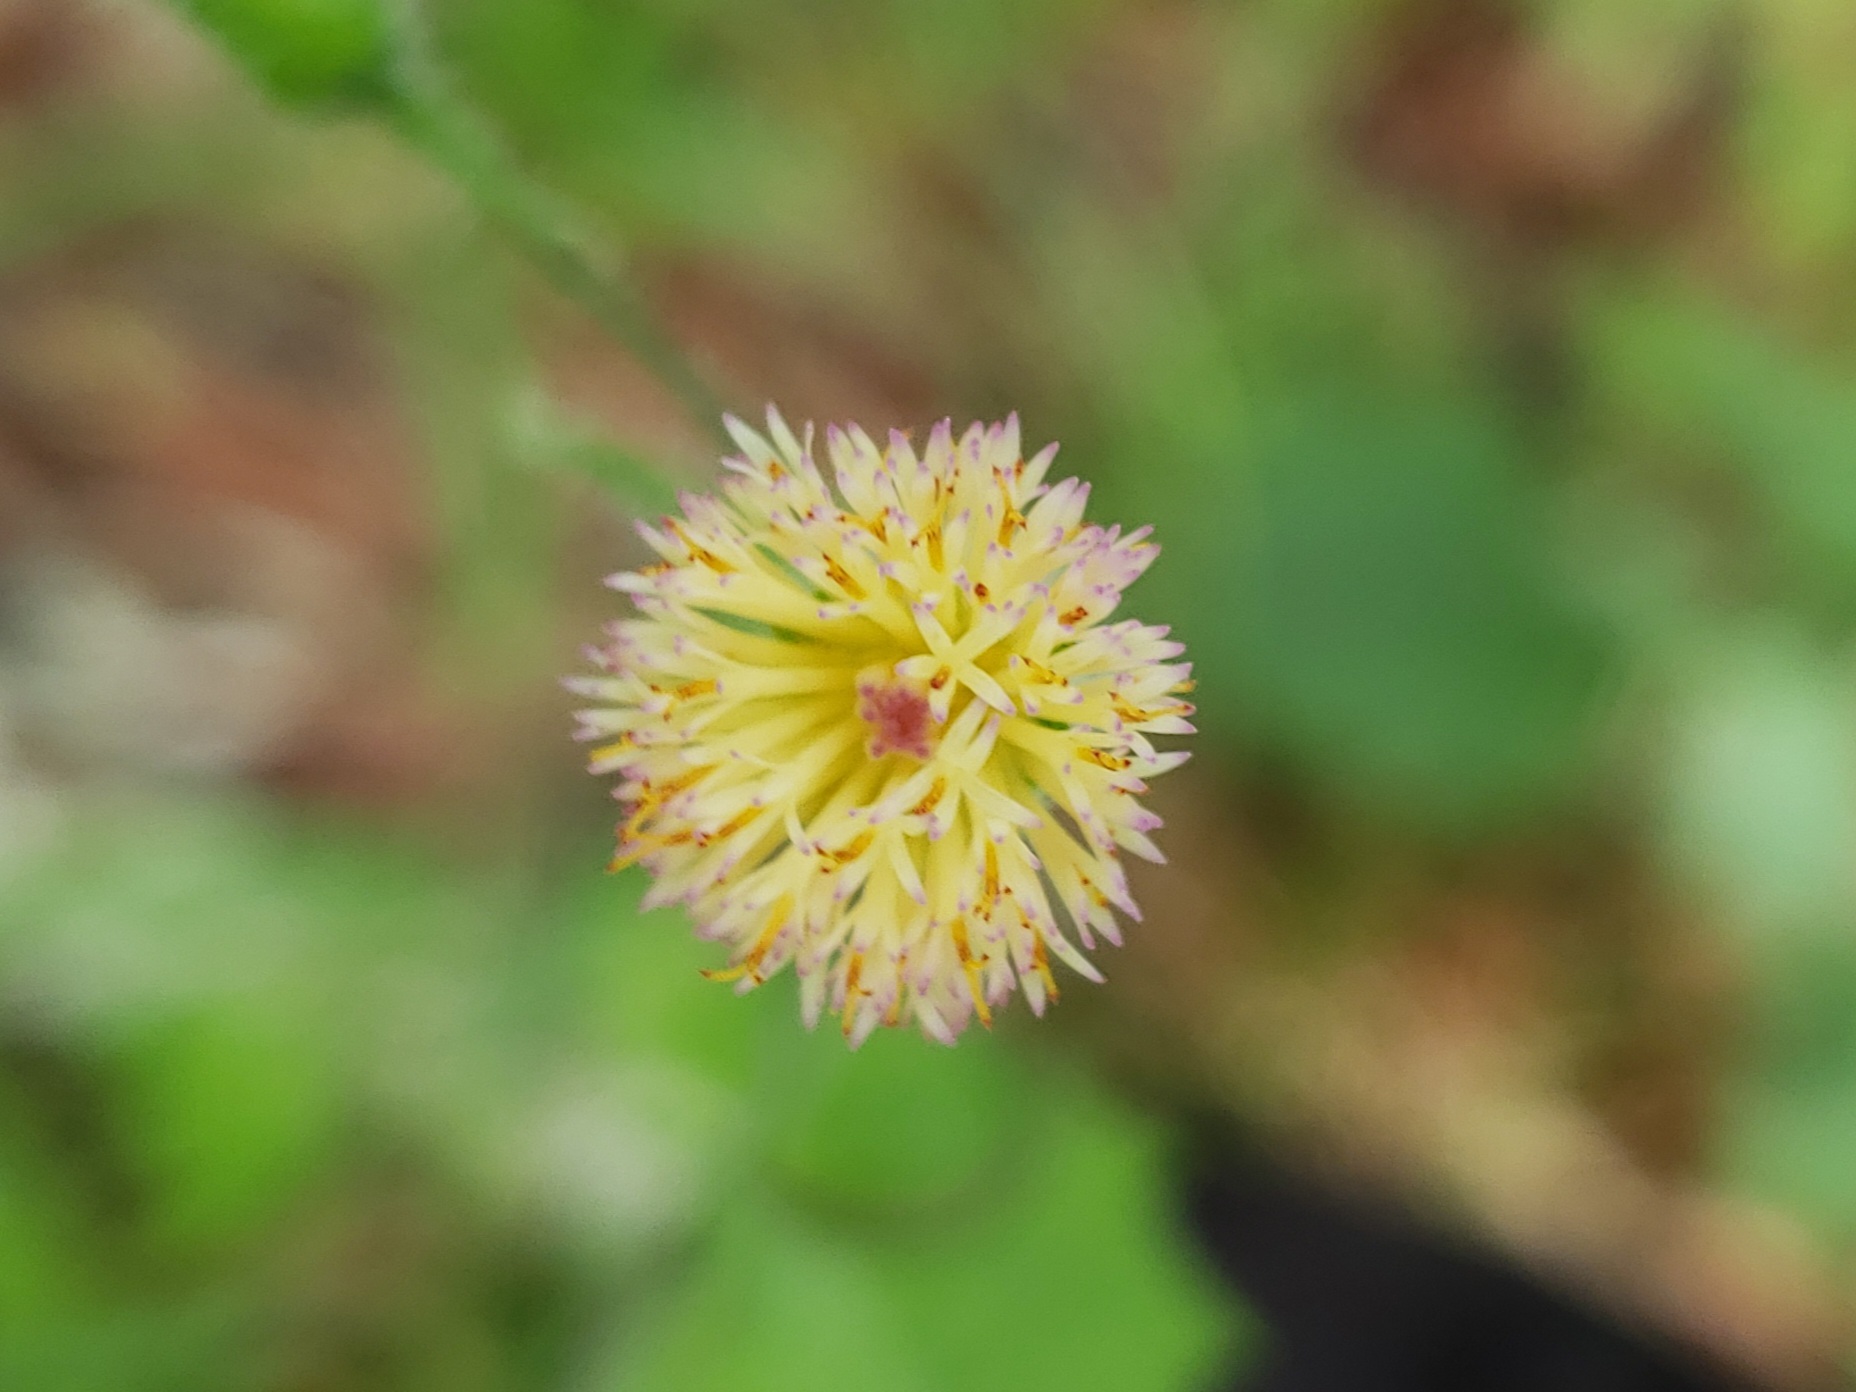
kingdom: Plantae
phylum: Tracheophyta
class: Magnoliopsida
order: Asterales
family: Asteraceae
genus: Emilia
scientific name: Emilia praetermissa
